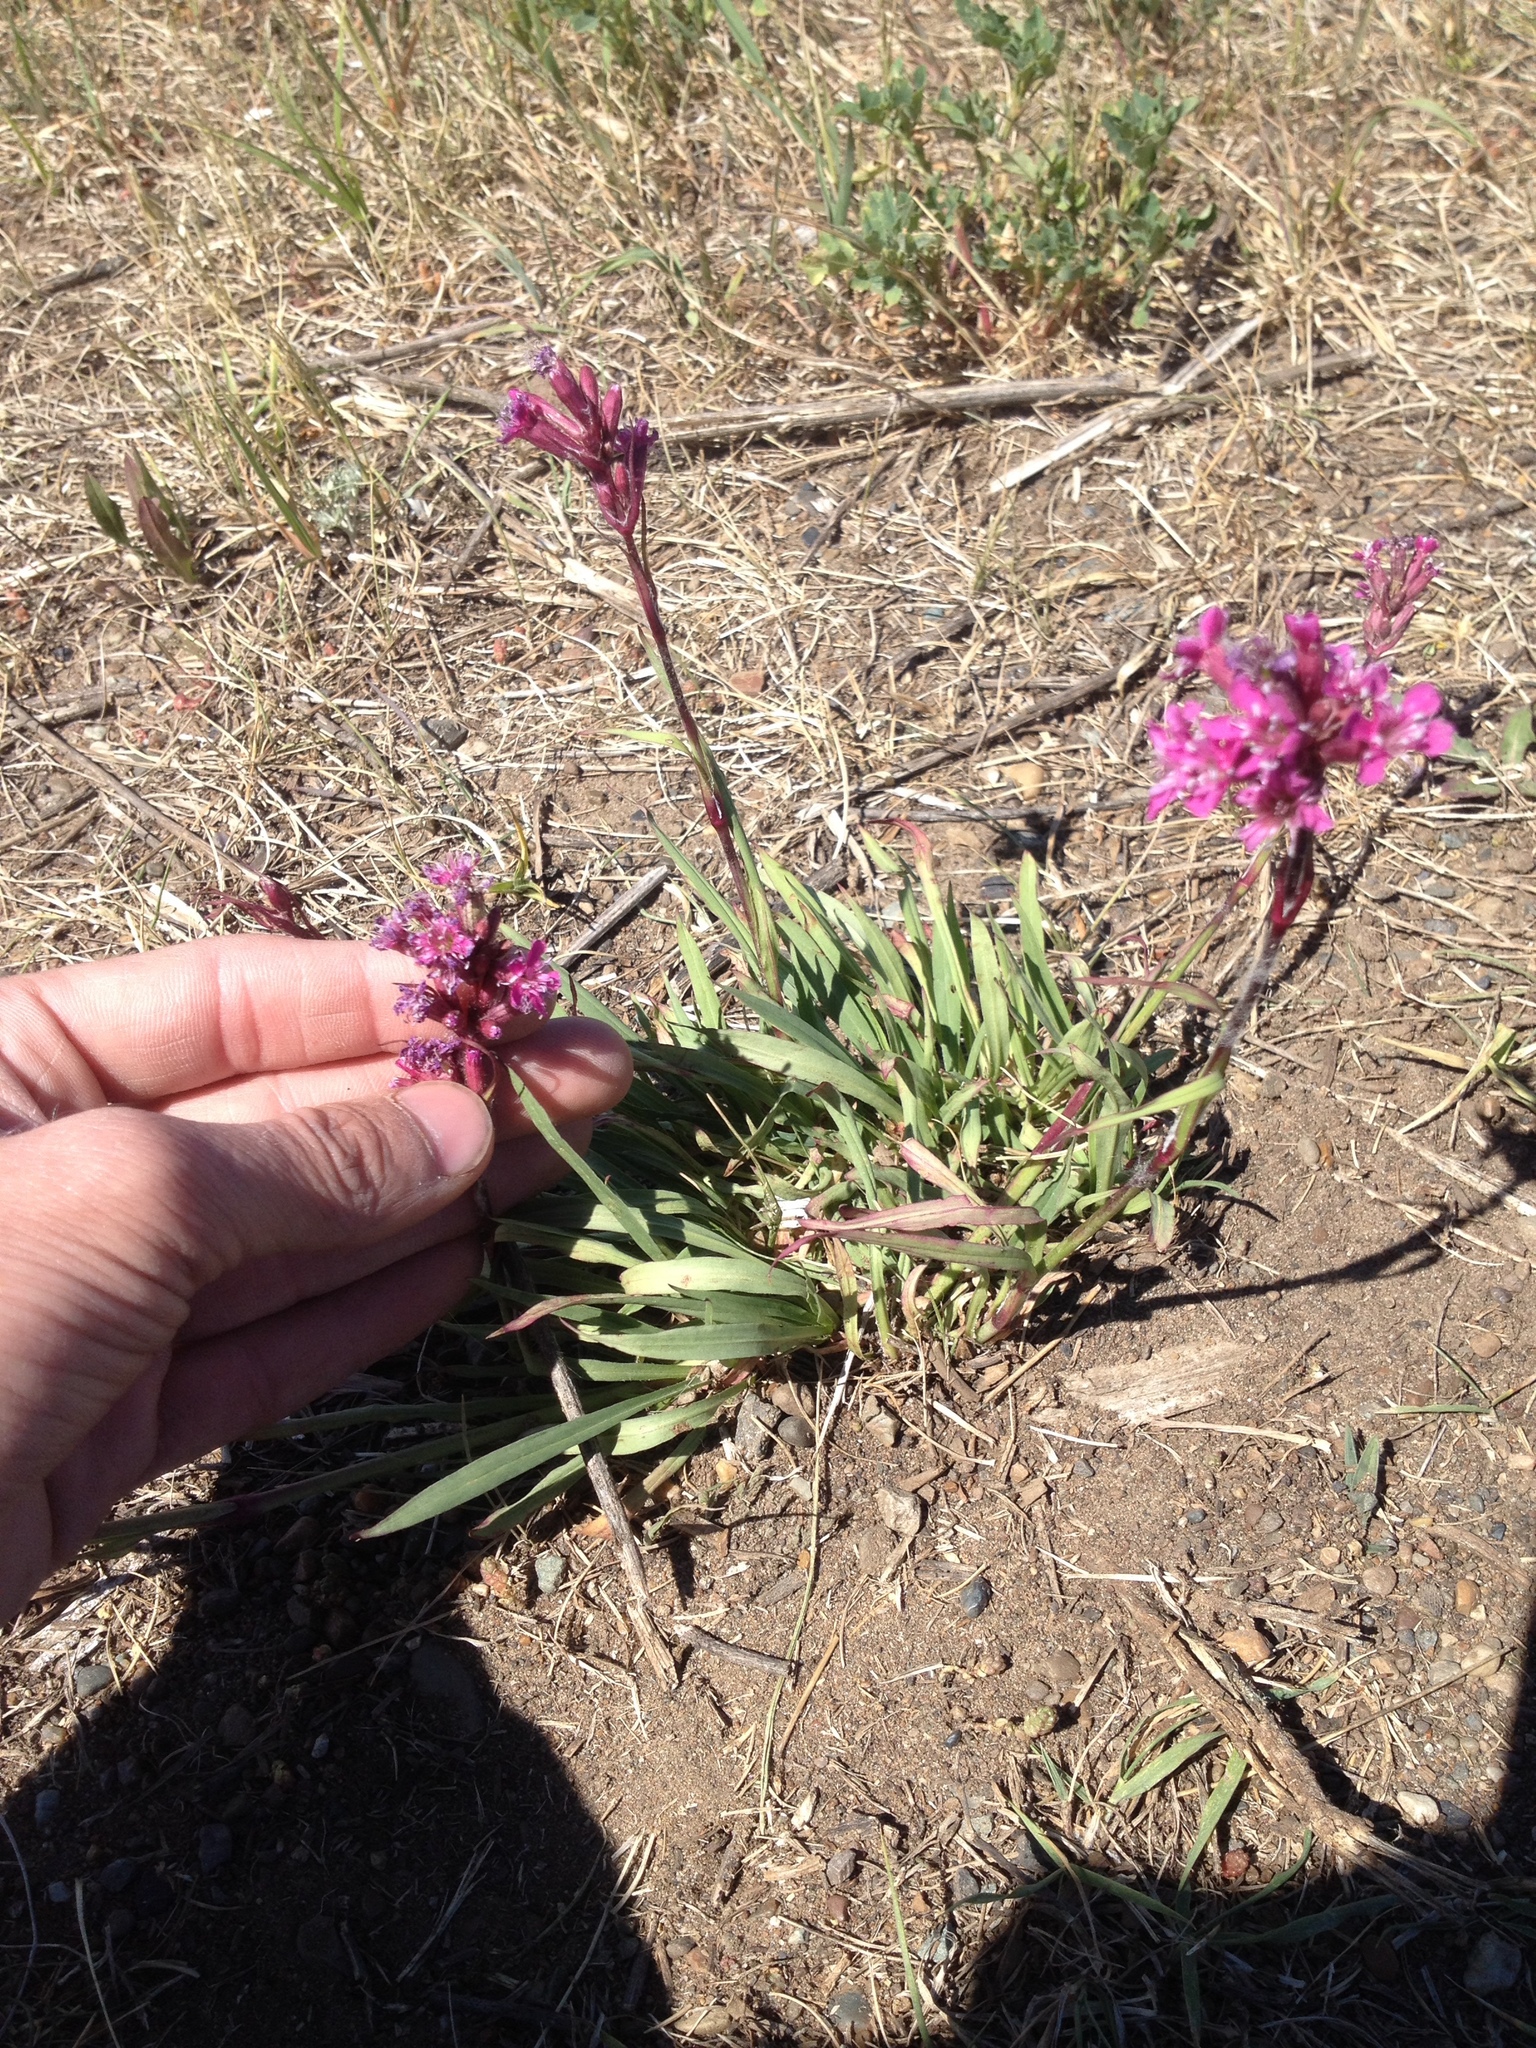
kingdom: Plantae
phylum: Tracheophyta
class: Magnoliopsida
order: Caryophyllales
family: Caryophyllaceae
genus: Viscaria
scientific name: Viscaria vulgaris
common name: Clammy campion
